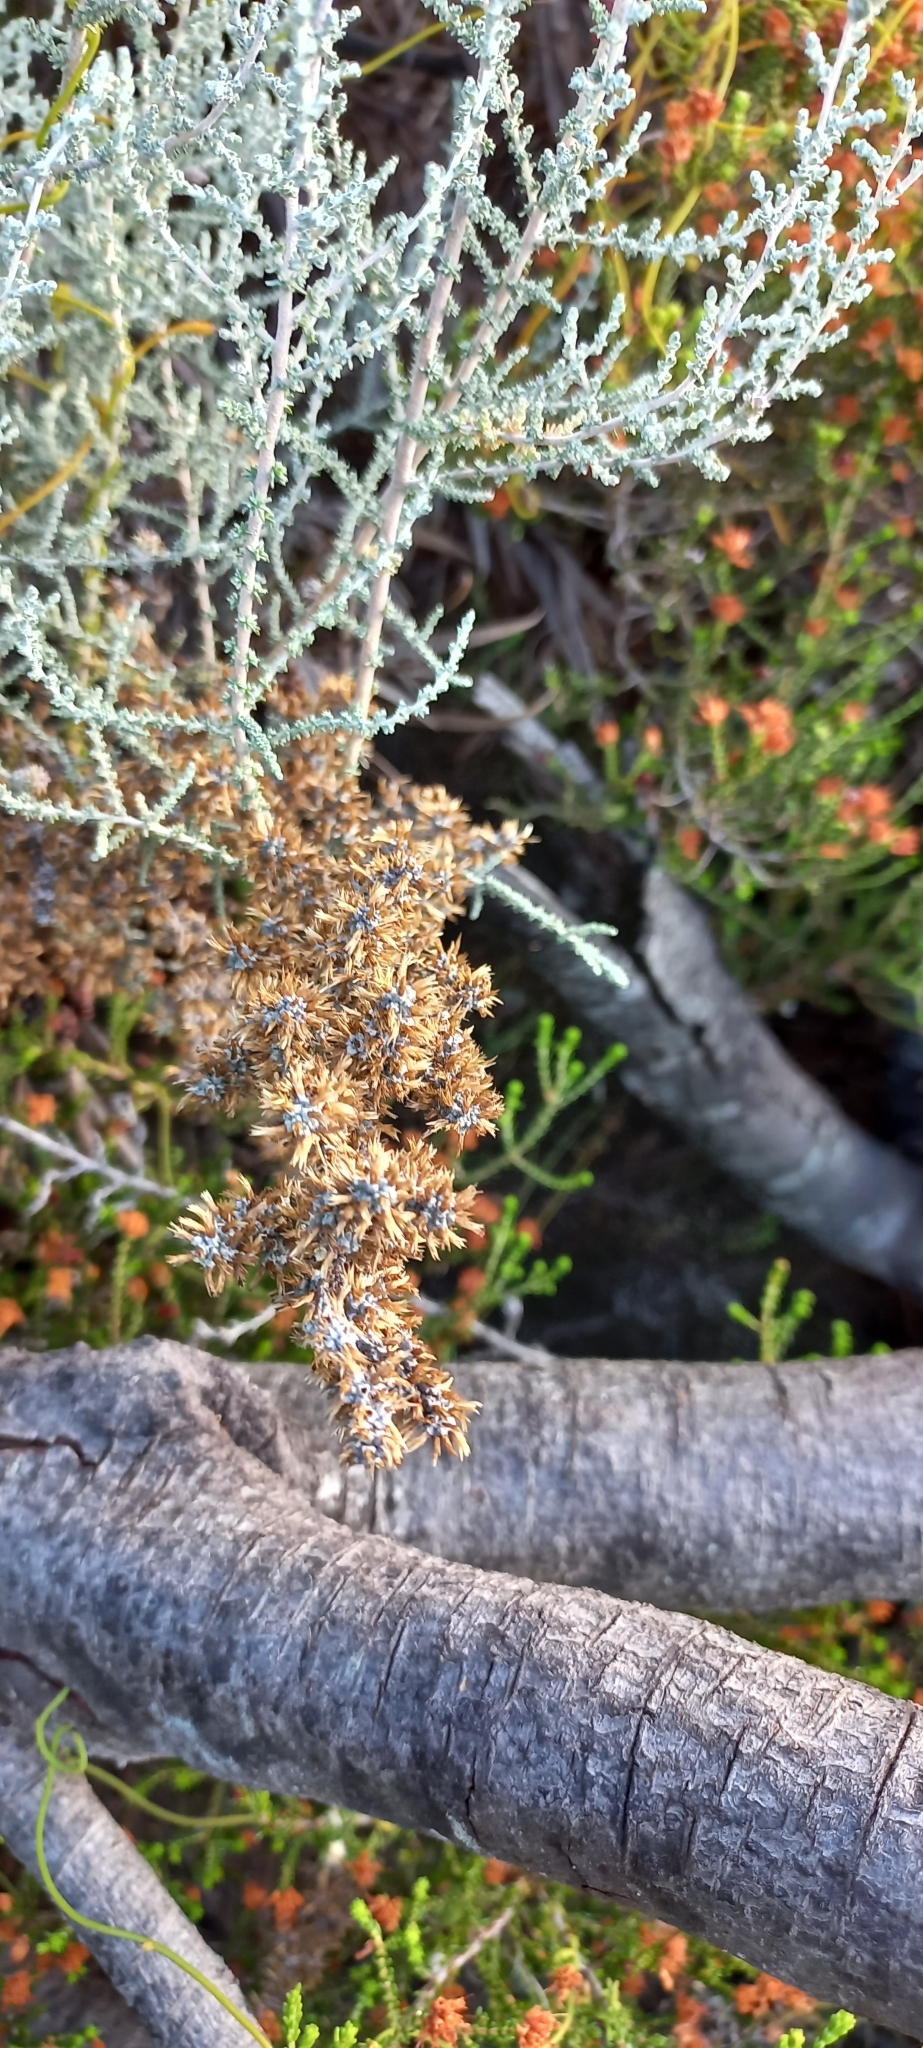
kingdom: Plantae
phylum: Tracheophyta
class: Magnoliopsida
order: Asterales
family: Asteraceae
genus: Seriphium
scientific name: Seriphium plumosum
